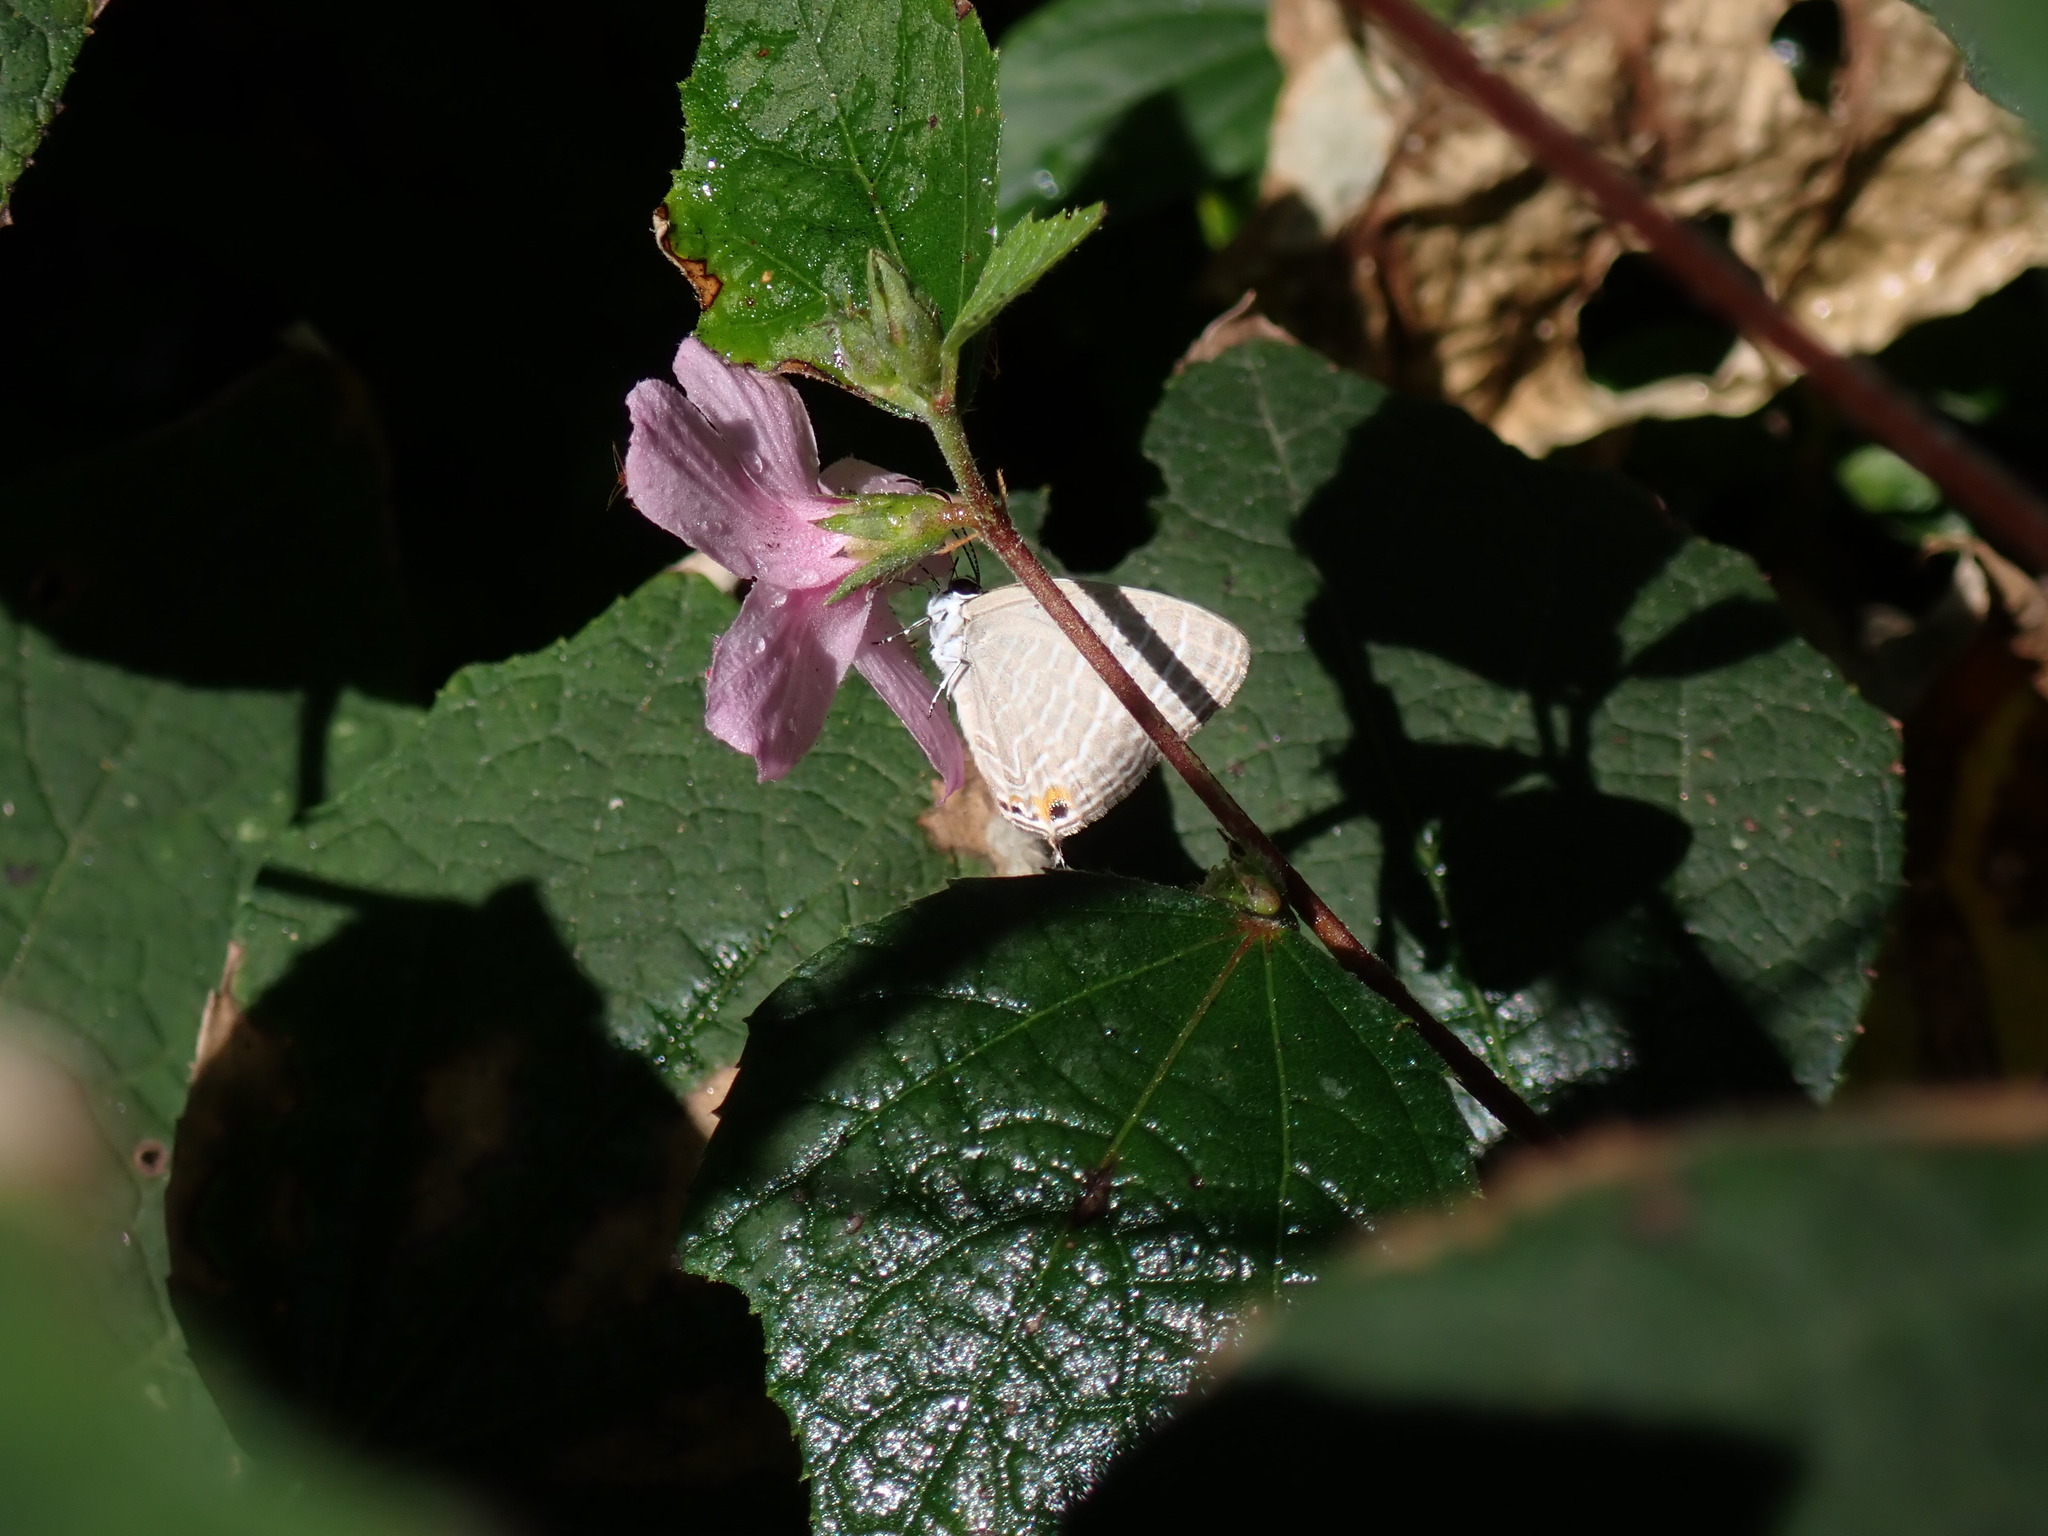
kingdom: Animalia
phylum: Arthropoda
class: Insecta
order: Lepidoptera
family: Lycaenidae
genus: Jamides
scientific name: Jamides celeno
